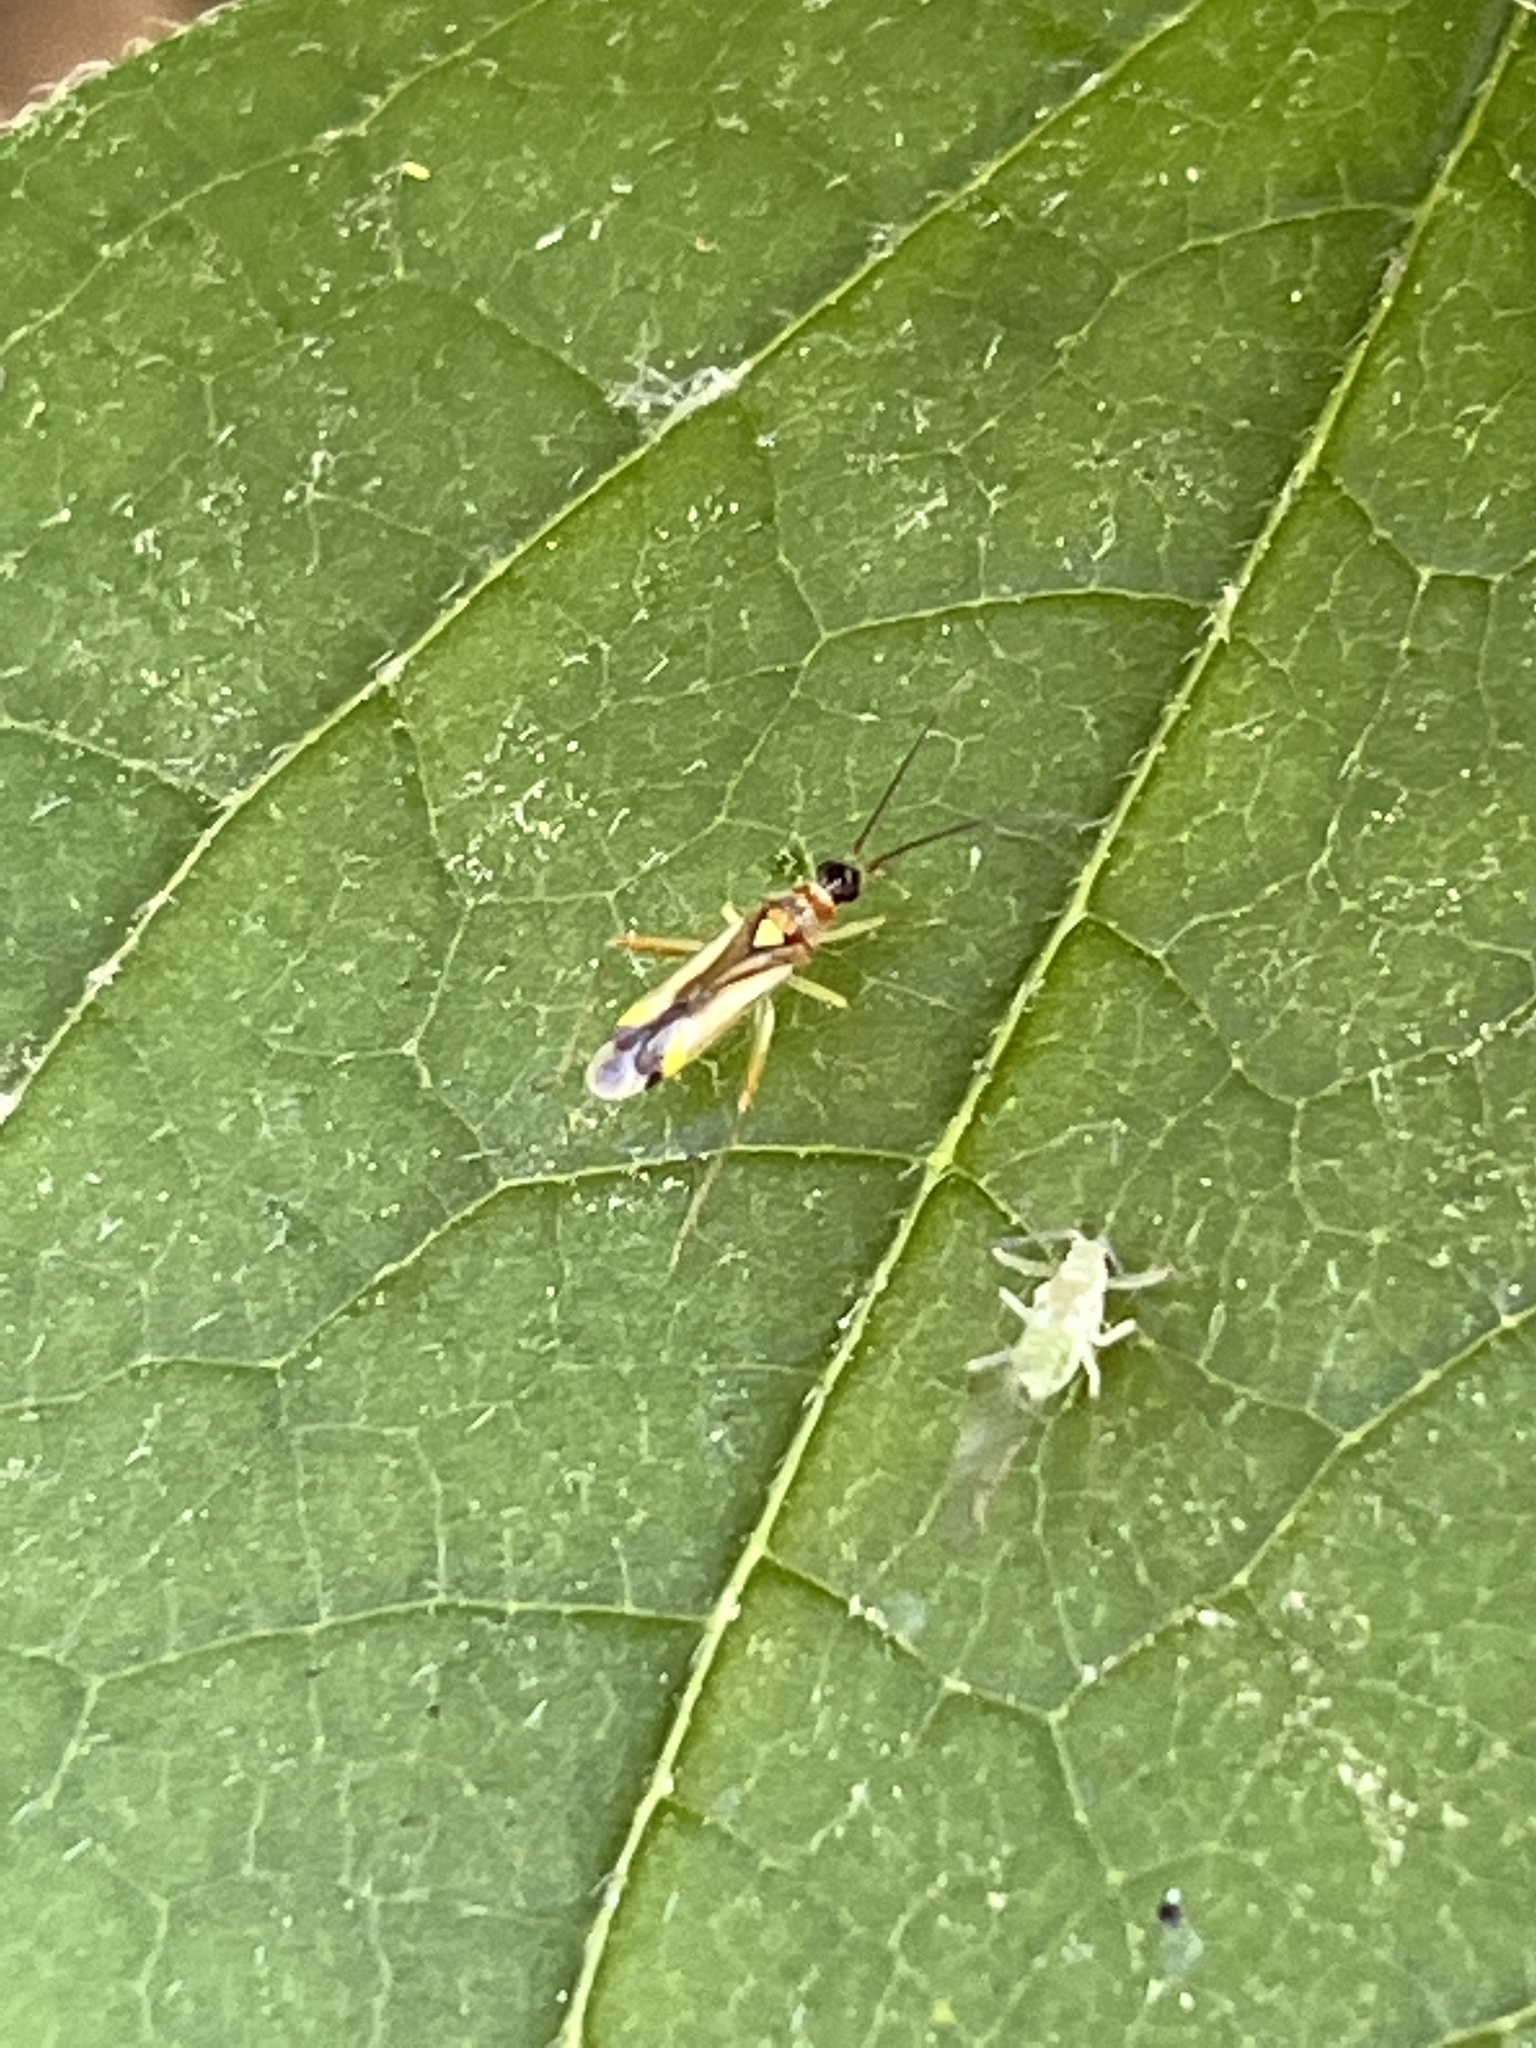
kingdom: Animalia
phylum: Arthropoda
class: Insecta
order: Hemiptera
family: Miridae
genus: Campyloneura
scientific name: Campyloneura virgula
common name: Predatory bug
